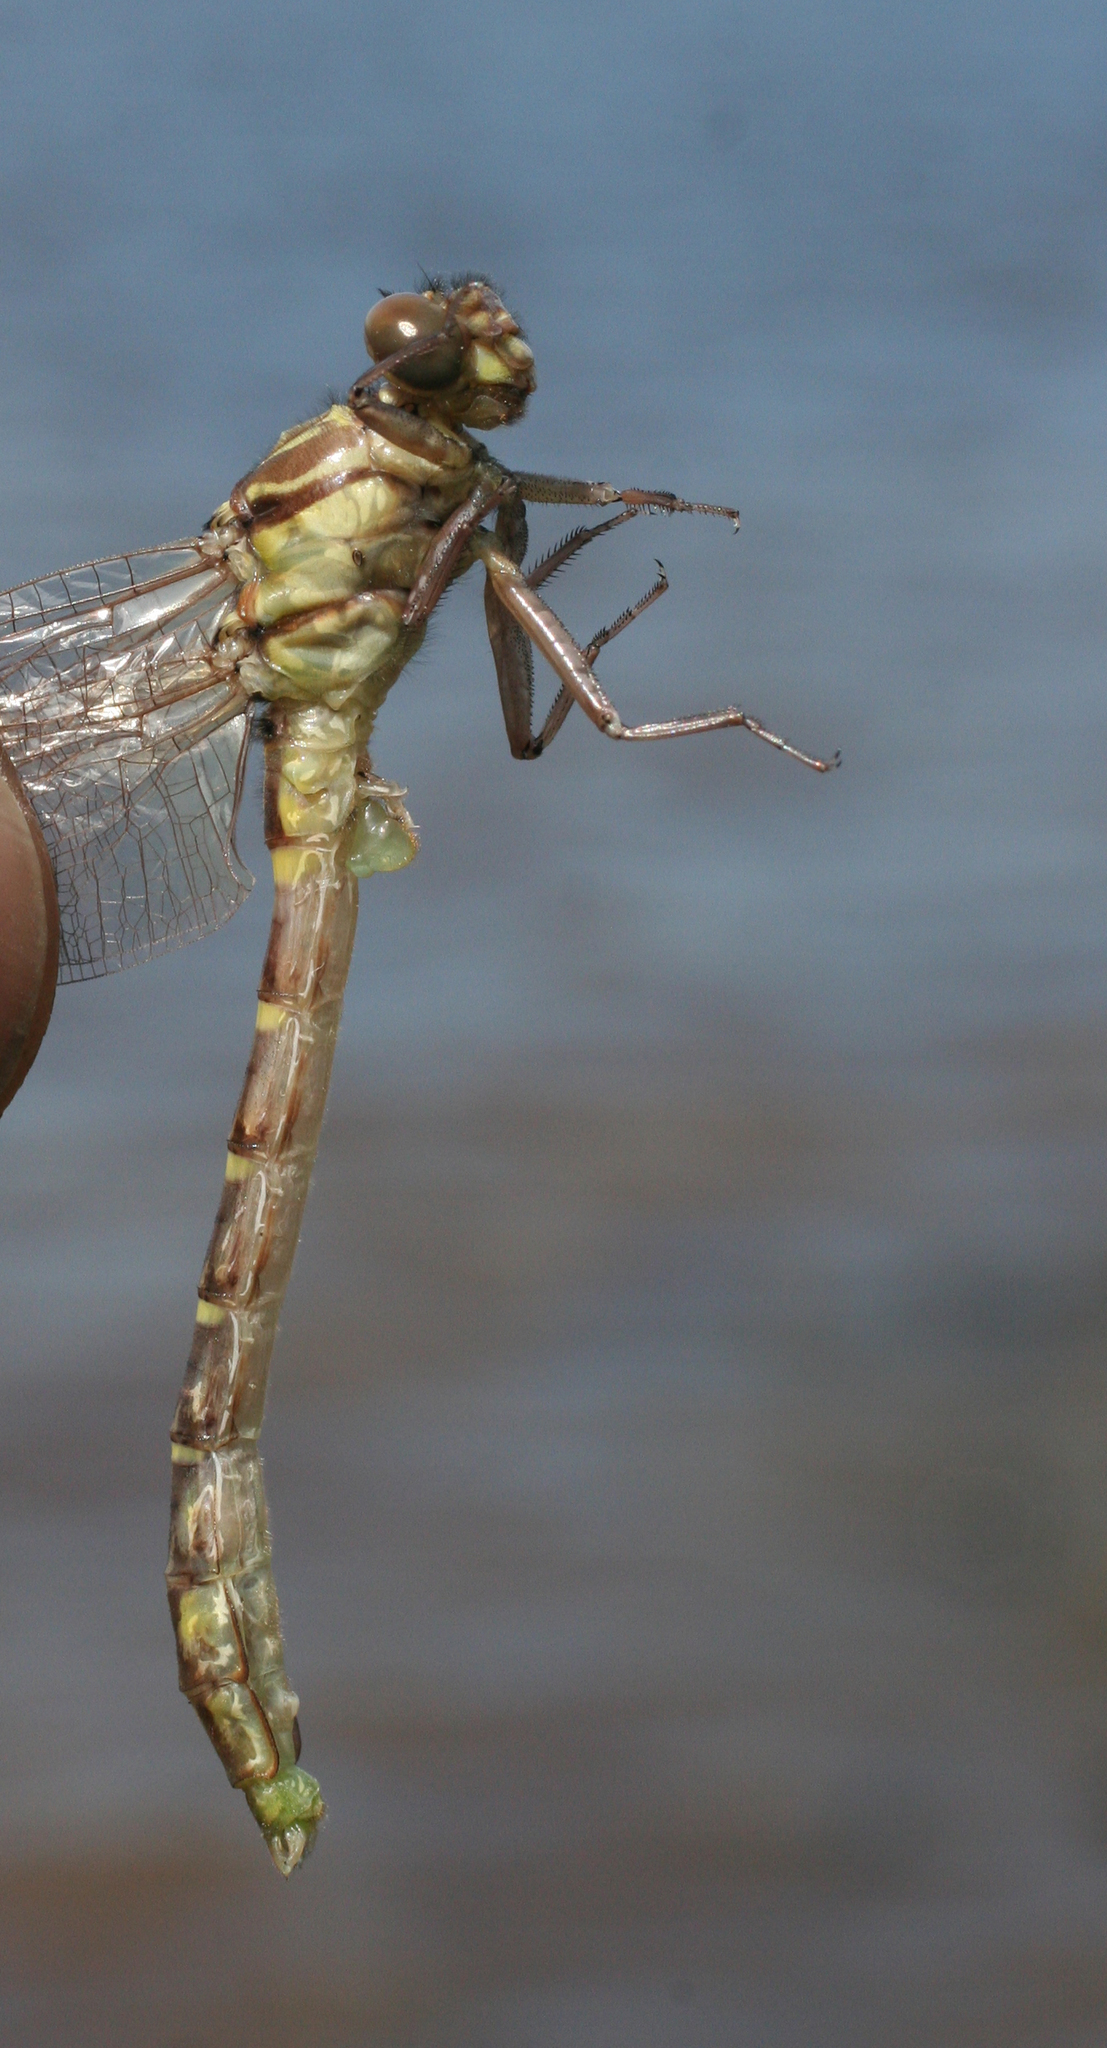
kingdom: Animalia
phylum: Arthropoda
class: Insecta
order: Odonata
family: Gomphidae
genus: Stylurus
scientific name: Stylurus annulatus
